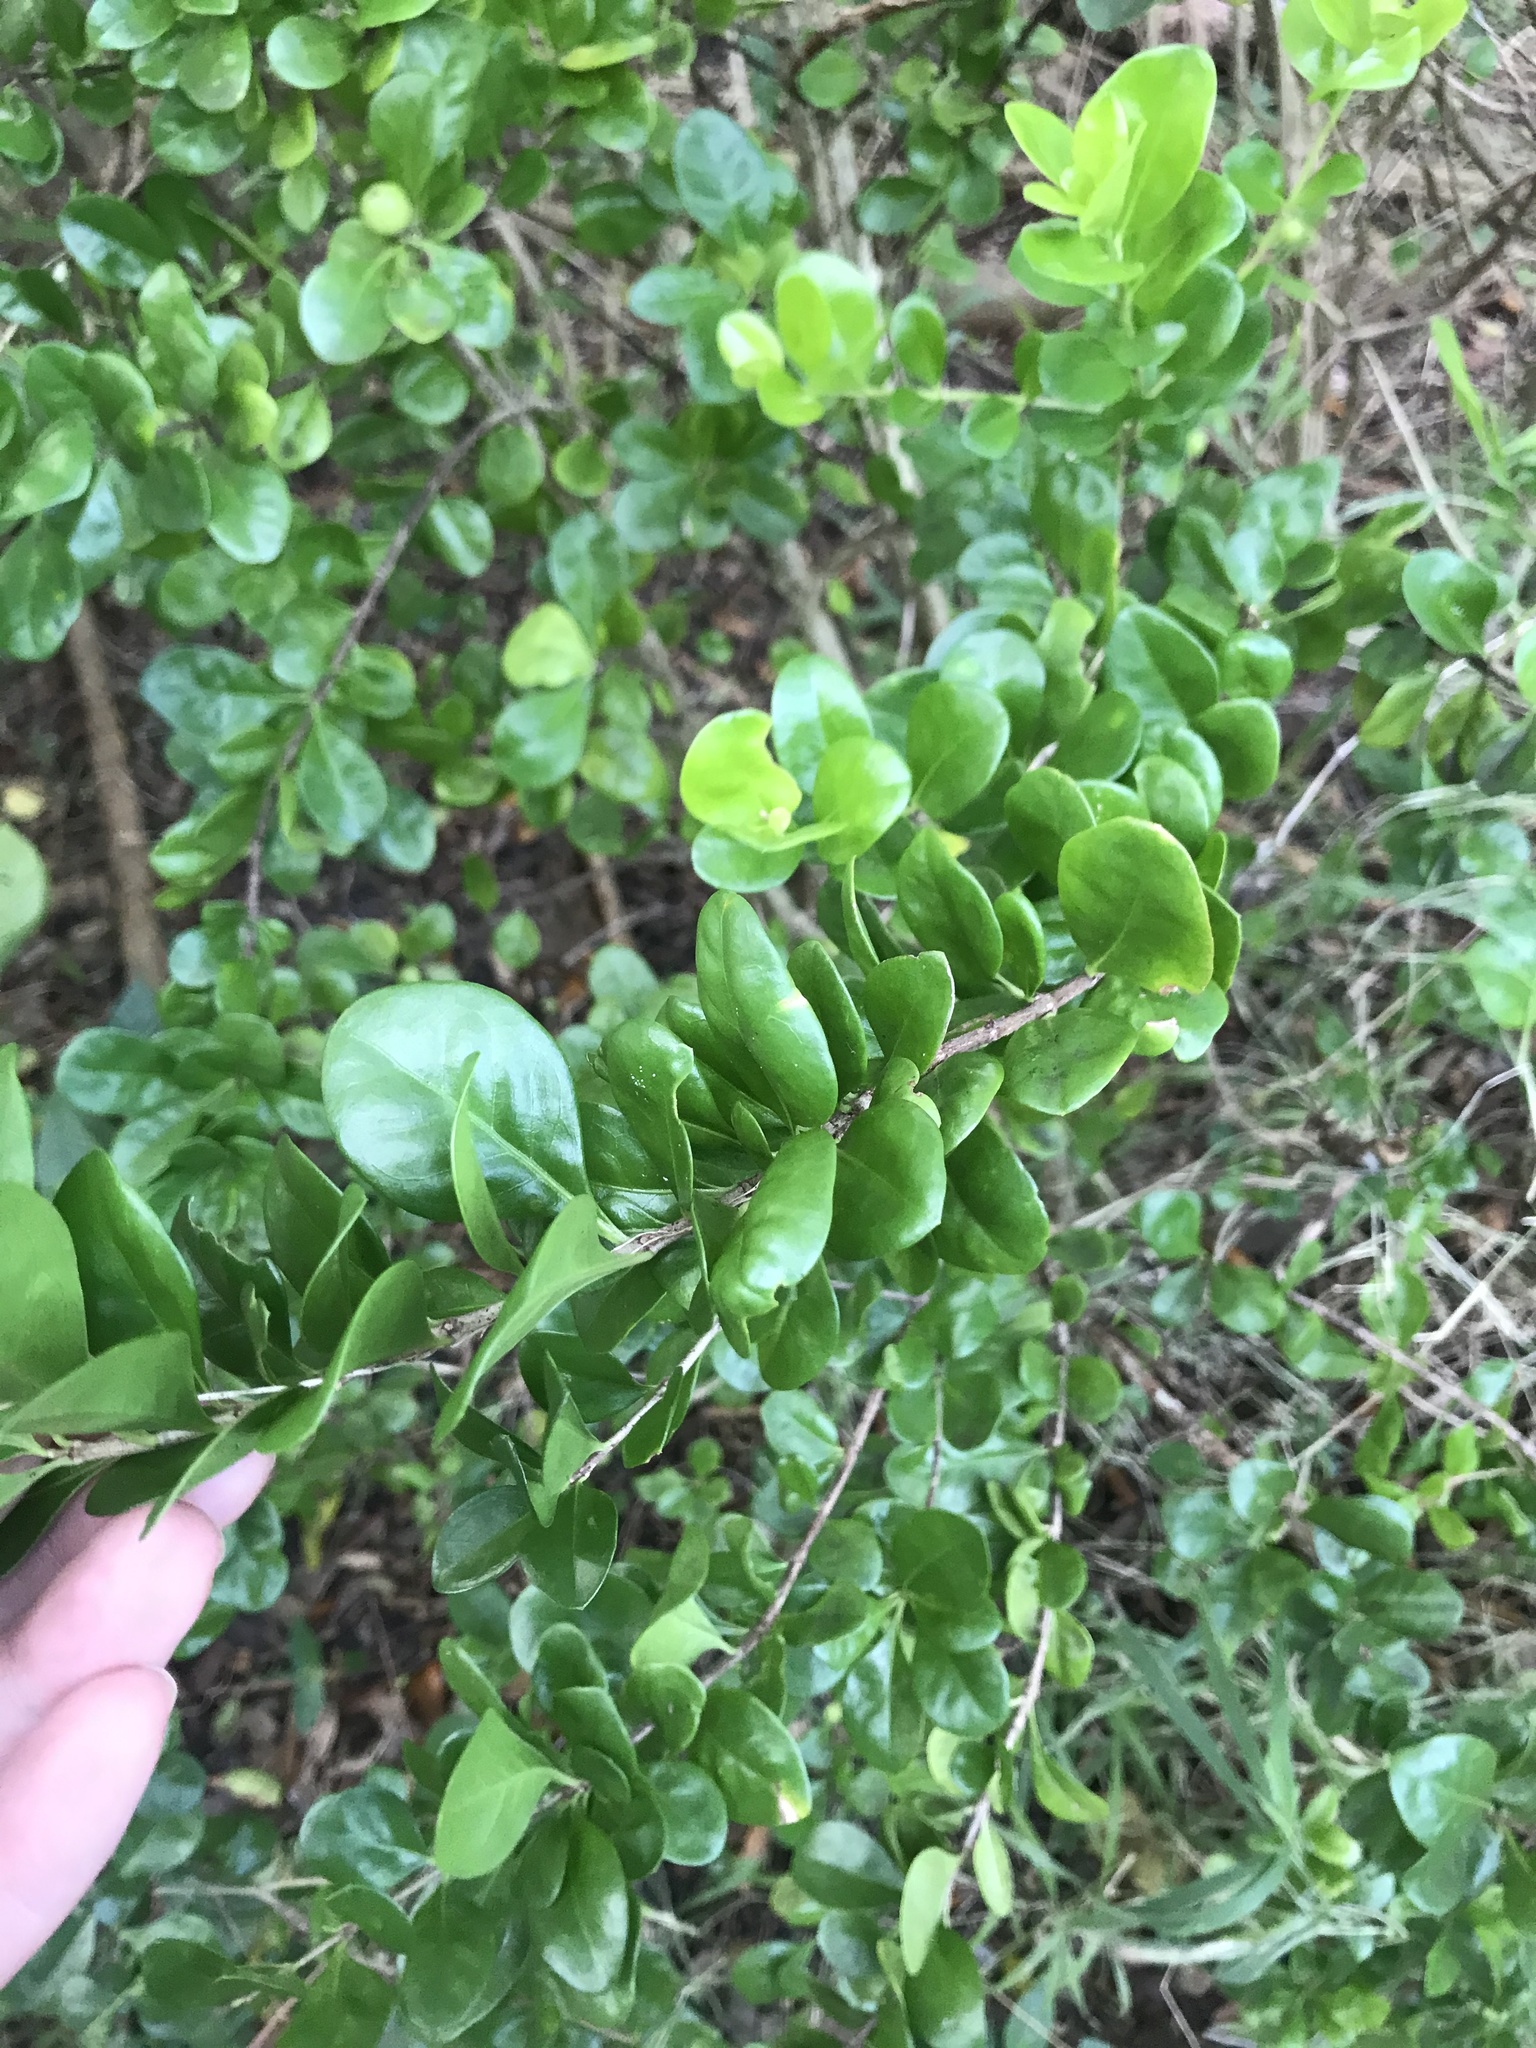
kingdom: Plantae
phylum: Tracheophyta
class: Magnoliopsida
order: Gentianales
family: Rubiaceae
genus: Randia
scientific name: Randia aculeata
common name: Inkberry
